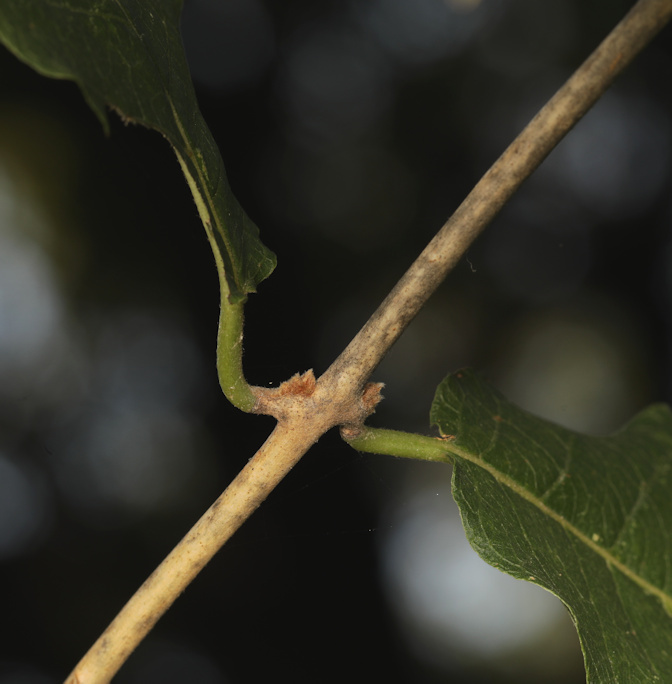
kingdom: Plantae
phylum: Tracheophyta
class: Magnoliopsida
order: Myrtales
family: Combretaceae
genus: Combretum
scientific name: Combretum mossambicense
